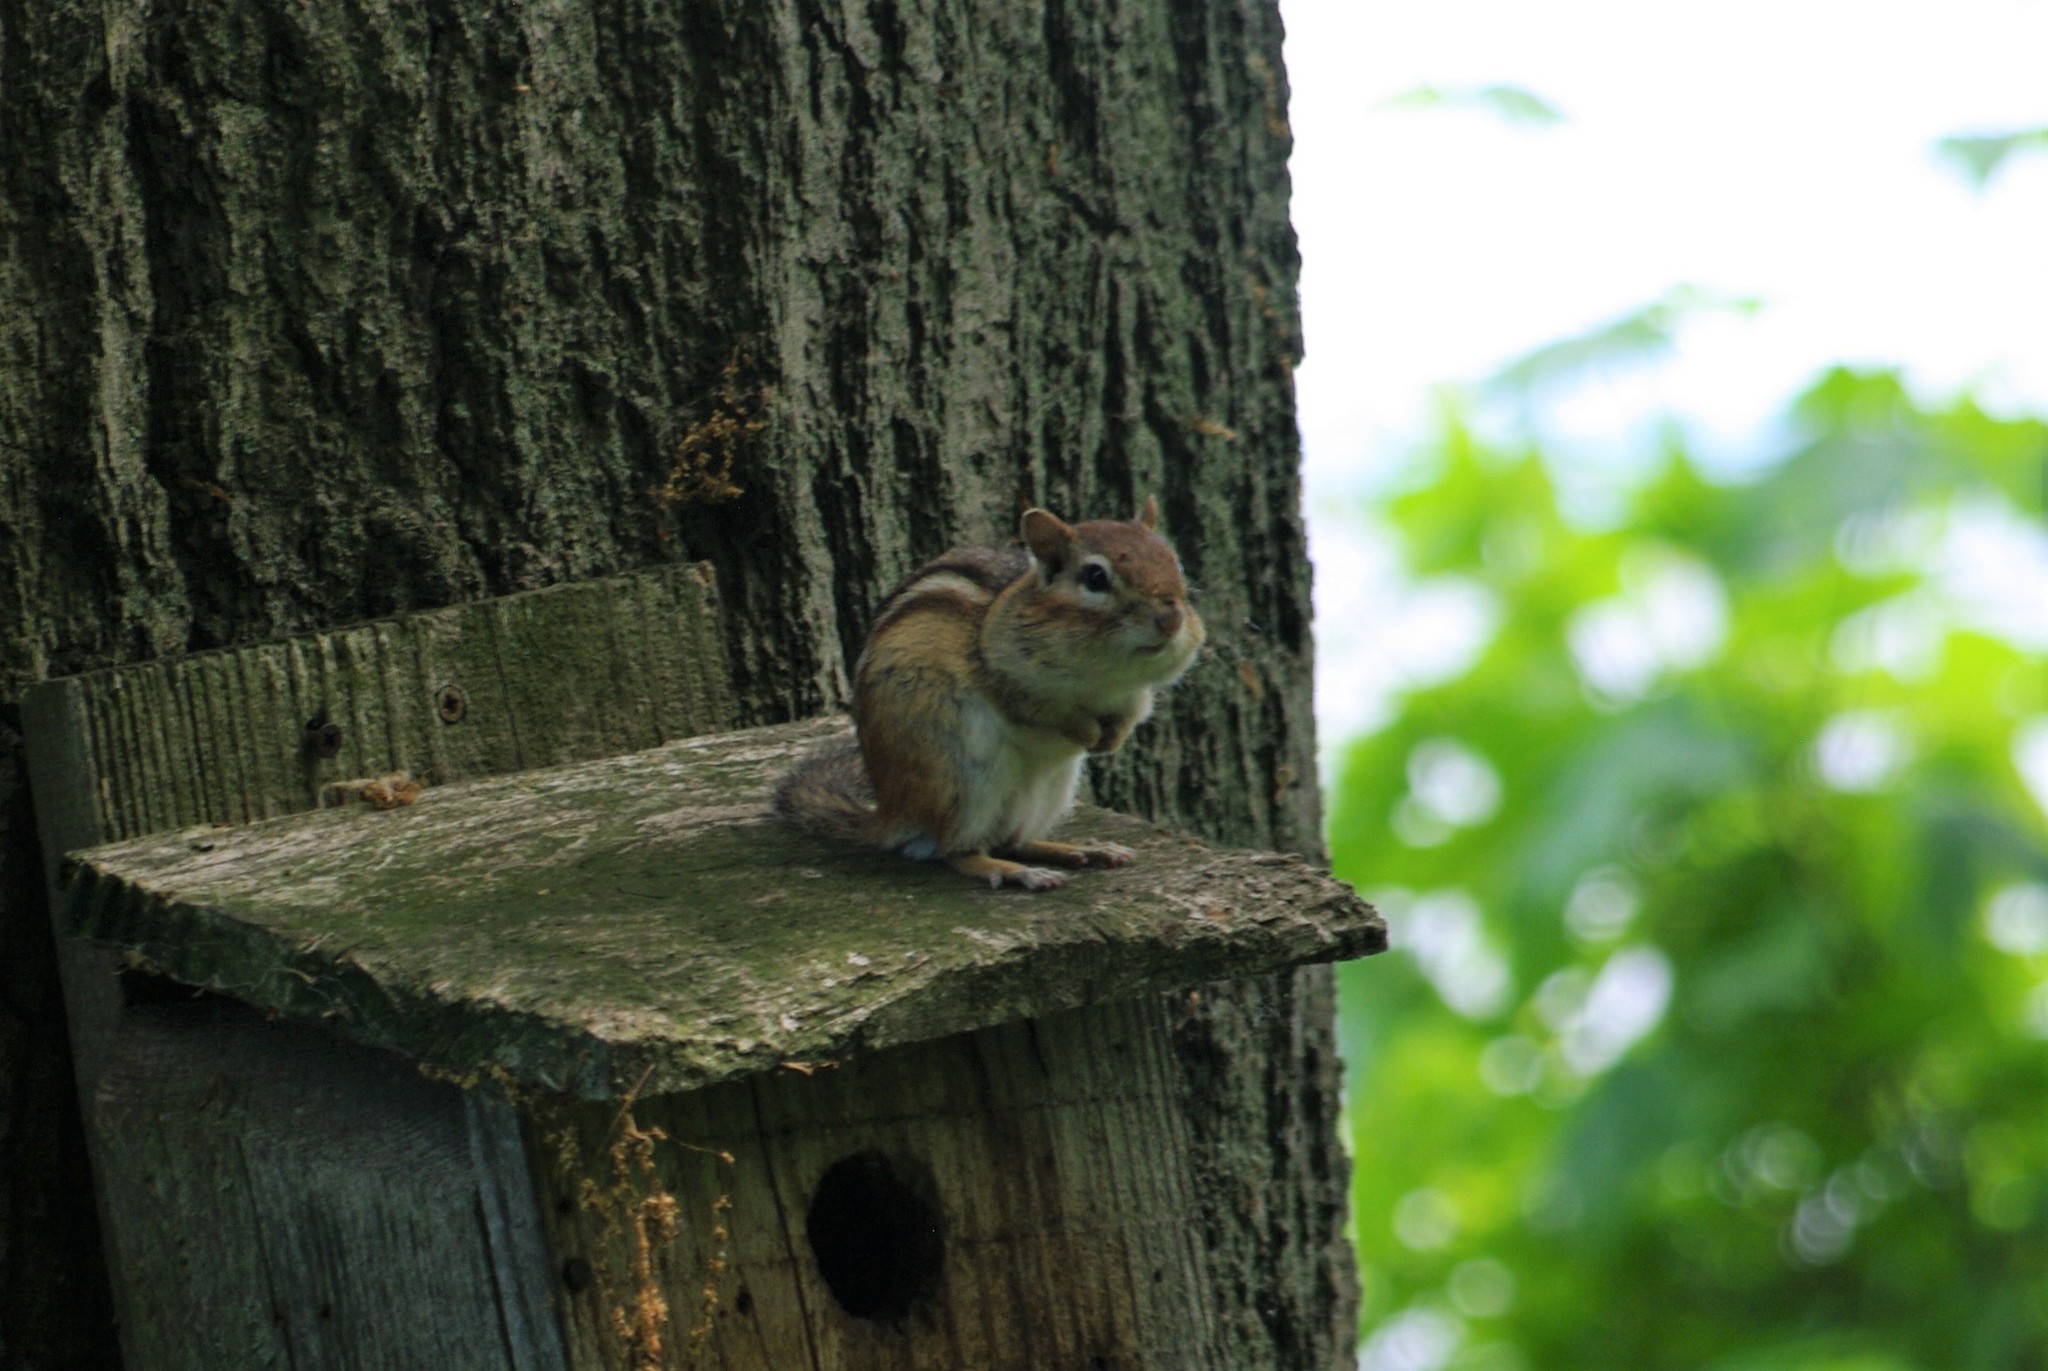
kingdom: Animalia
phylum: Chordata
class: Mammalia
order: Rodentia
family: Sciuridae
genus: Tamias
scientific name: Tamias striatus
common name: Eastern chipmunk
